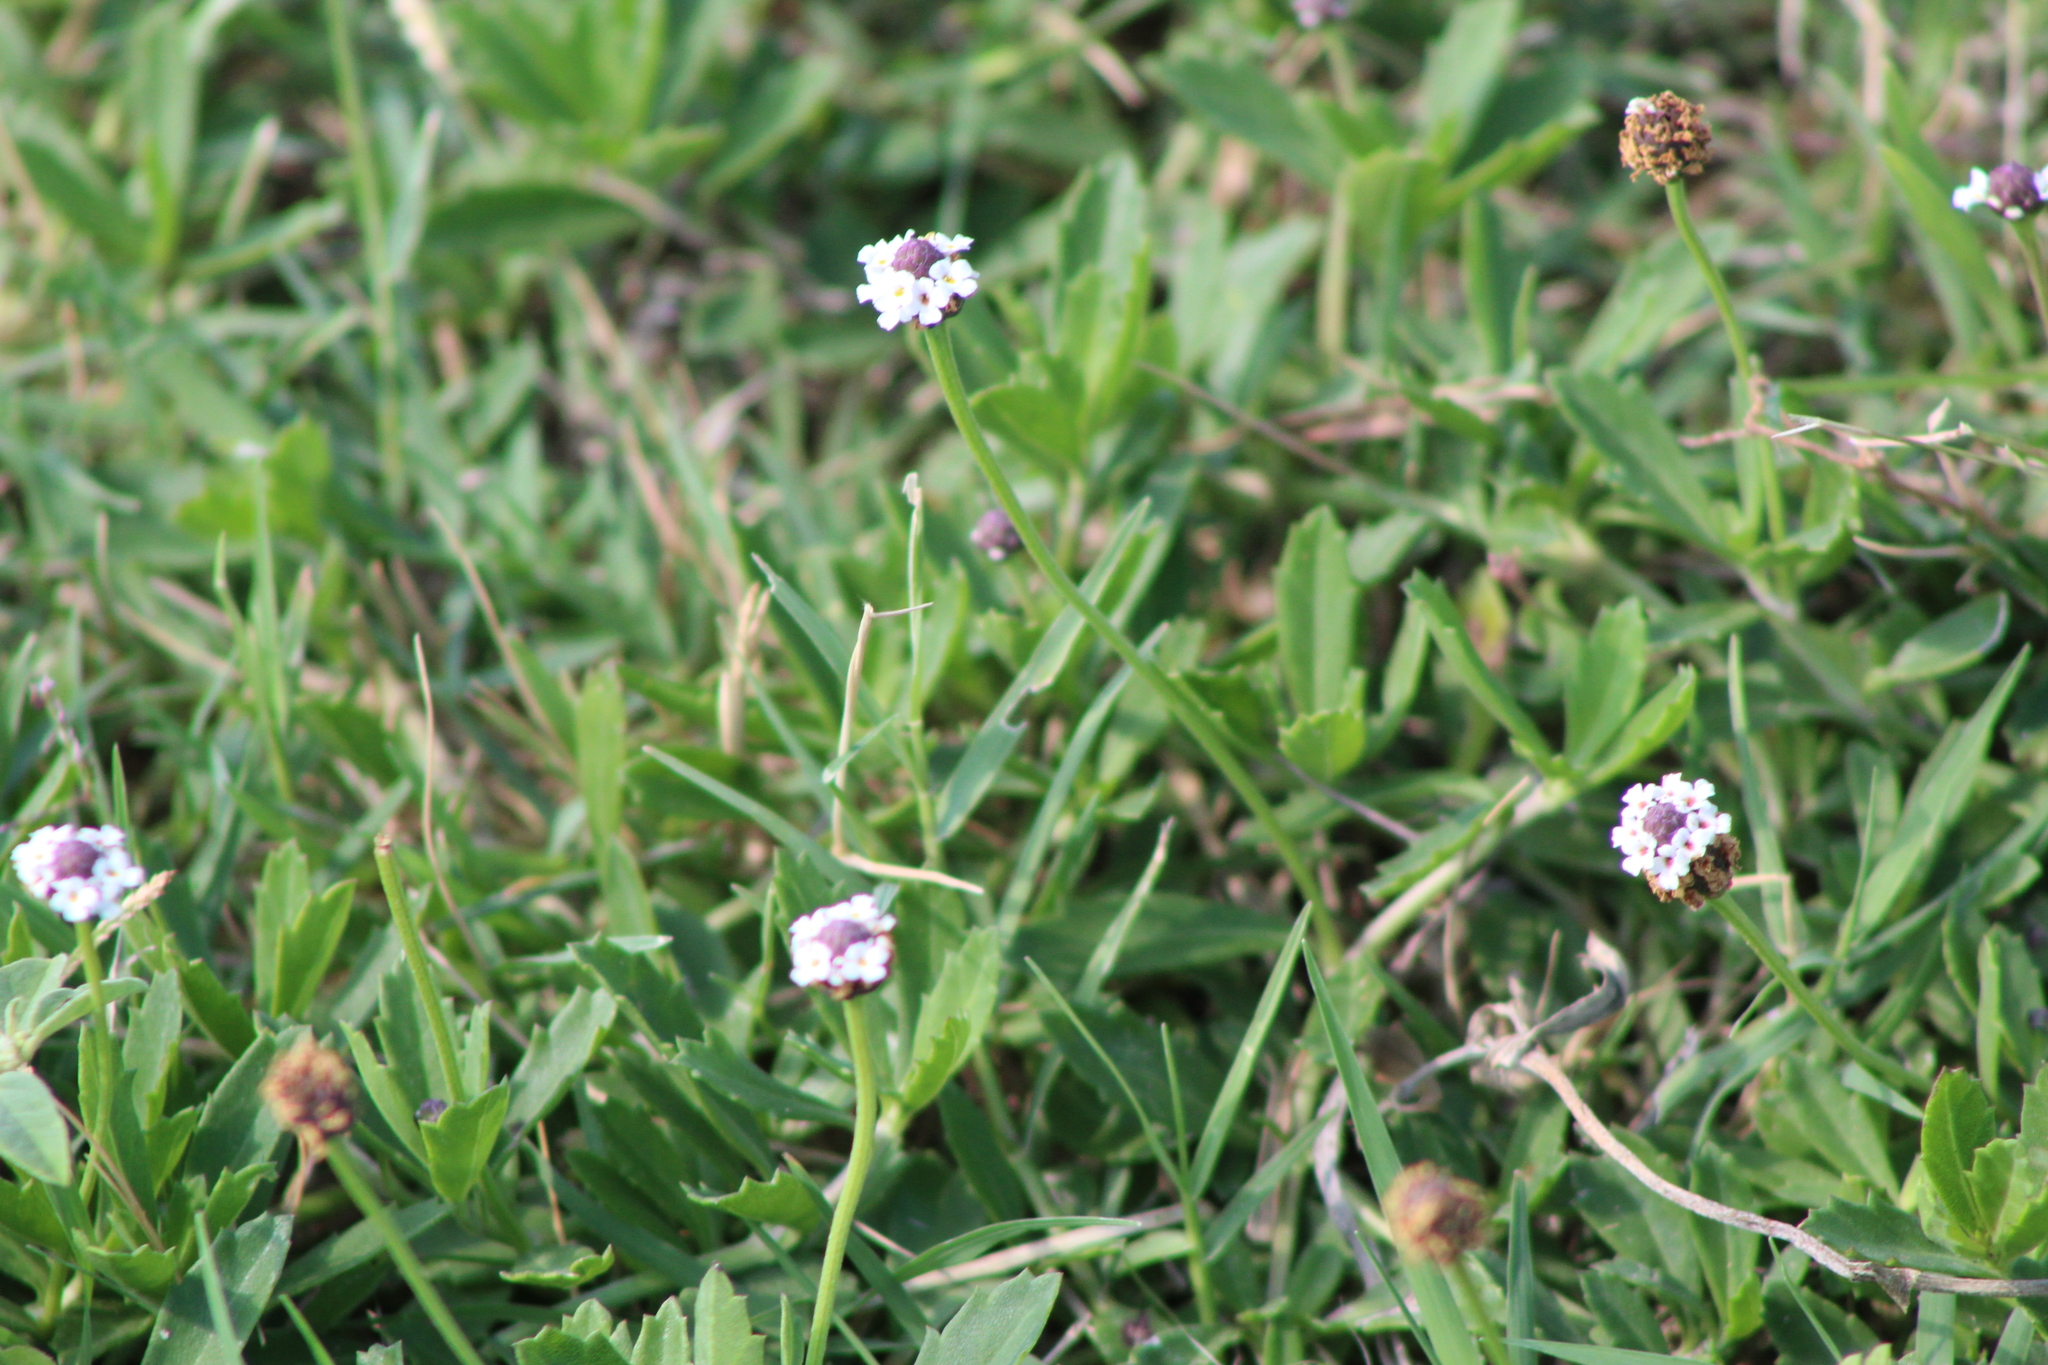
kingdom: Plantae
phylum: Tracheophyta
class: Magnoliopsida
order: Lamiales
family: Verbenaceae
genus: Phyla
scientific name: Phyla nodiflora
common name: Frogfruit
